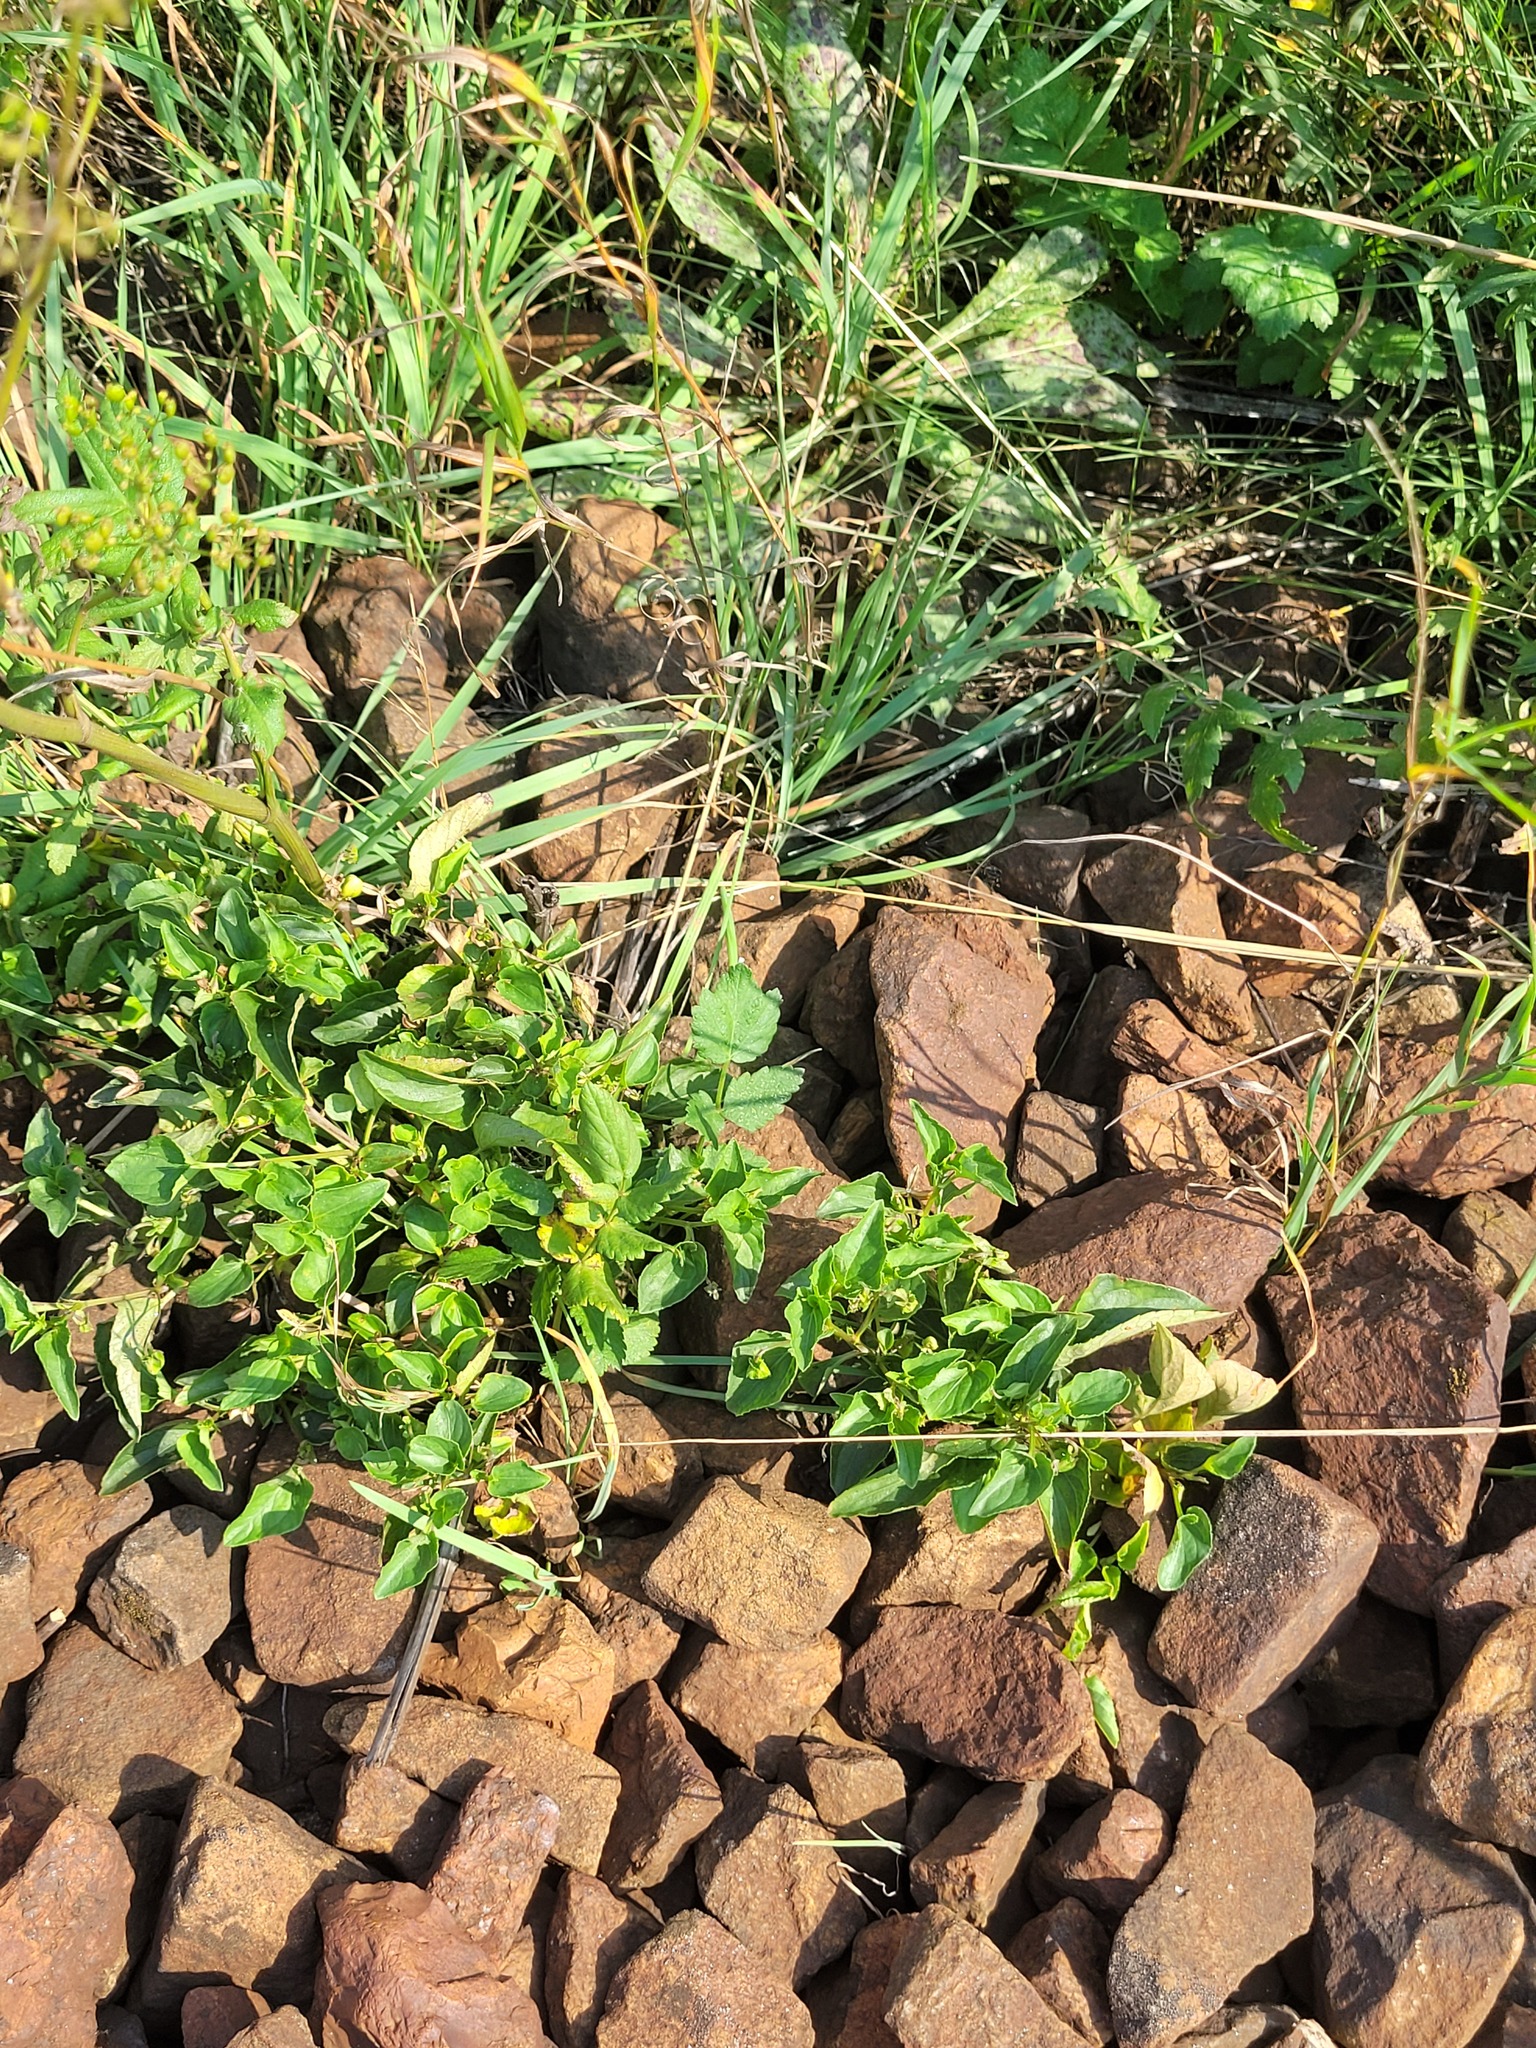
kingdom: Plantae
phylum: Tracheophyta
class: Magnoliopsida
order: Malpighiales
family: Violaceae
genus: Viola
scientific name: Viola canina
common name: Heath dog-violet
